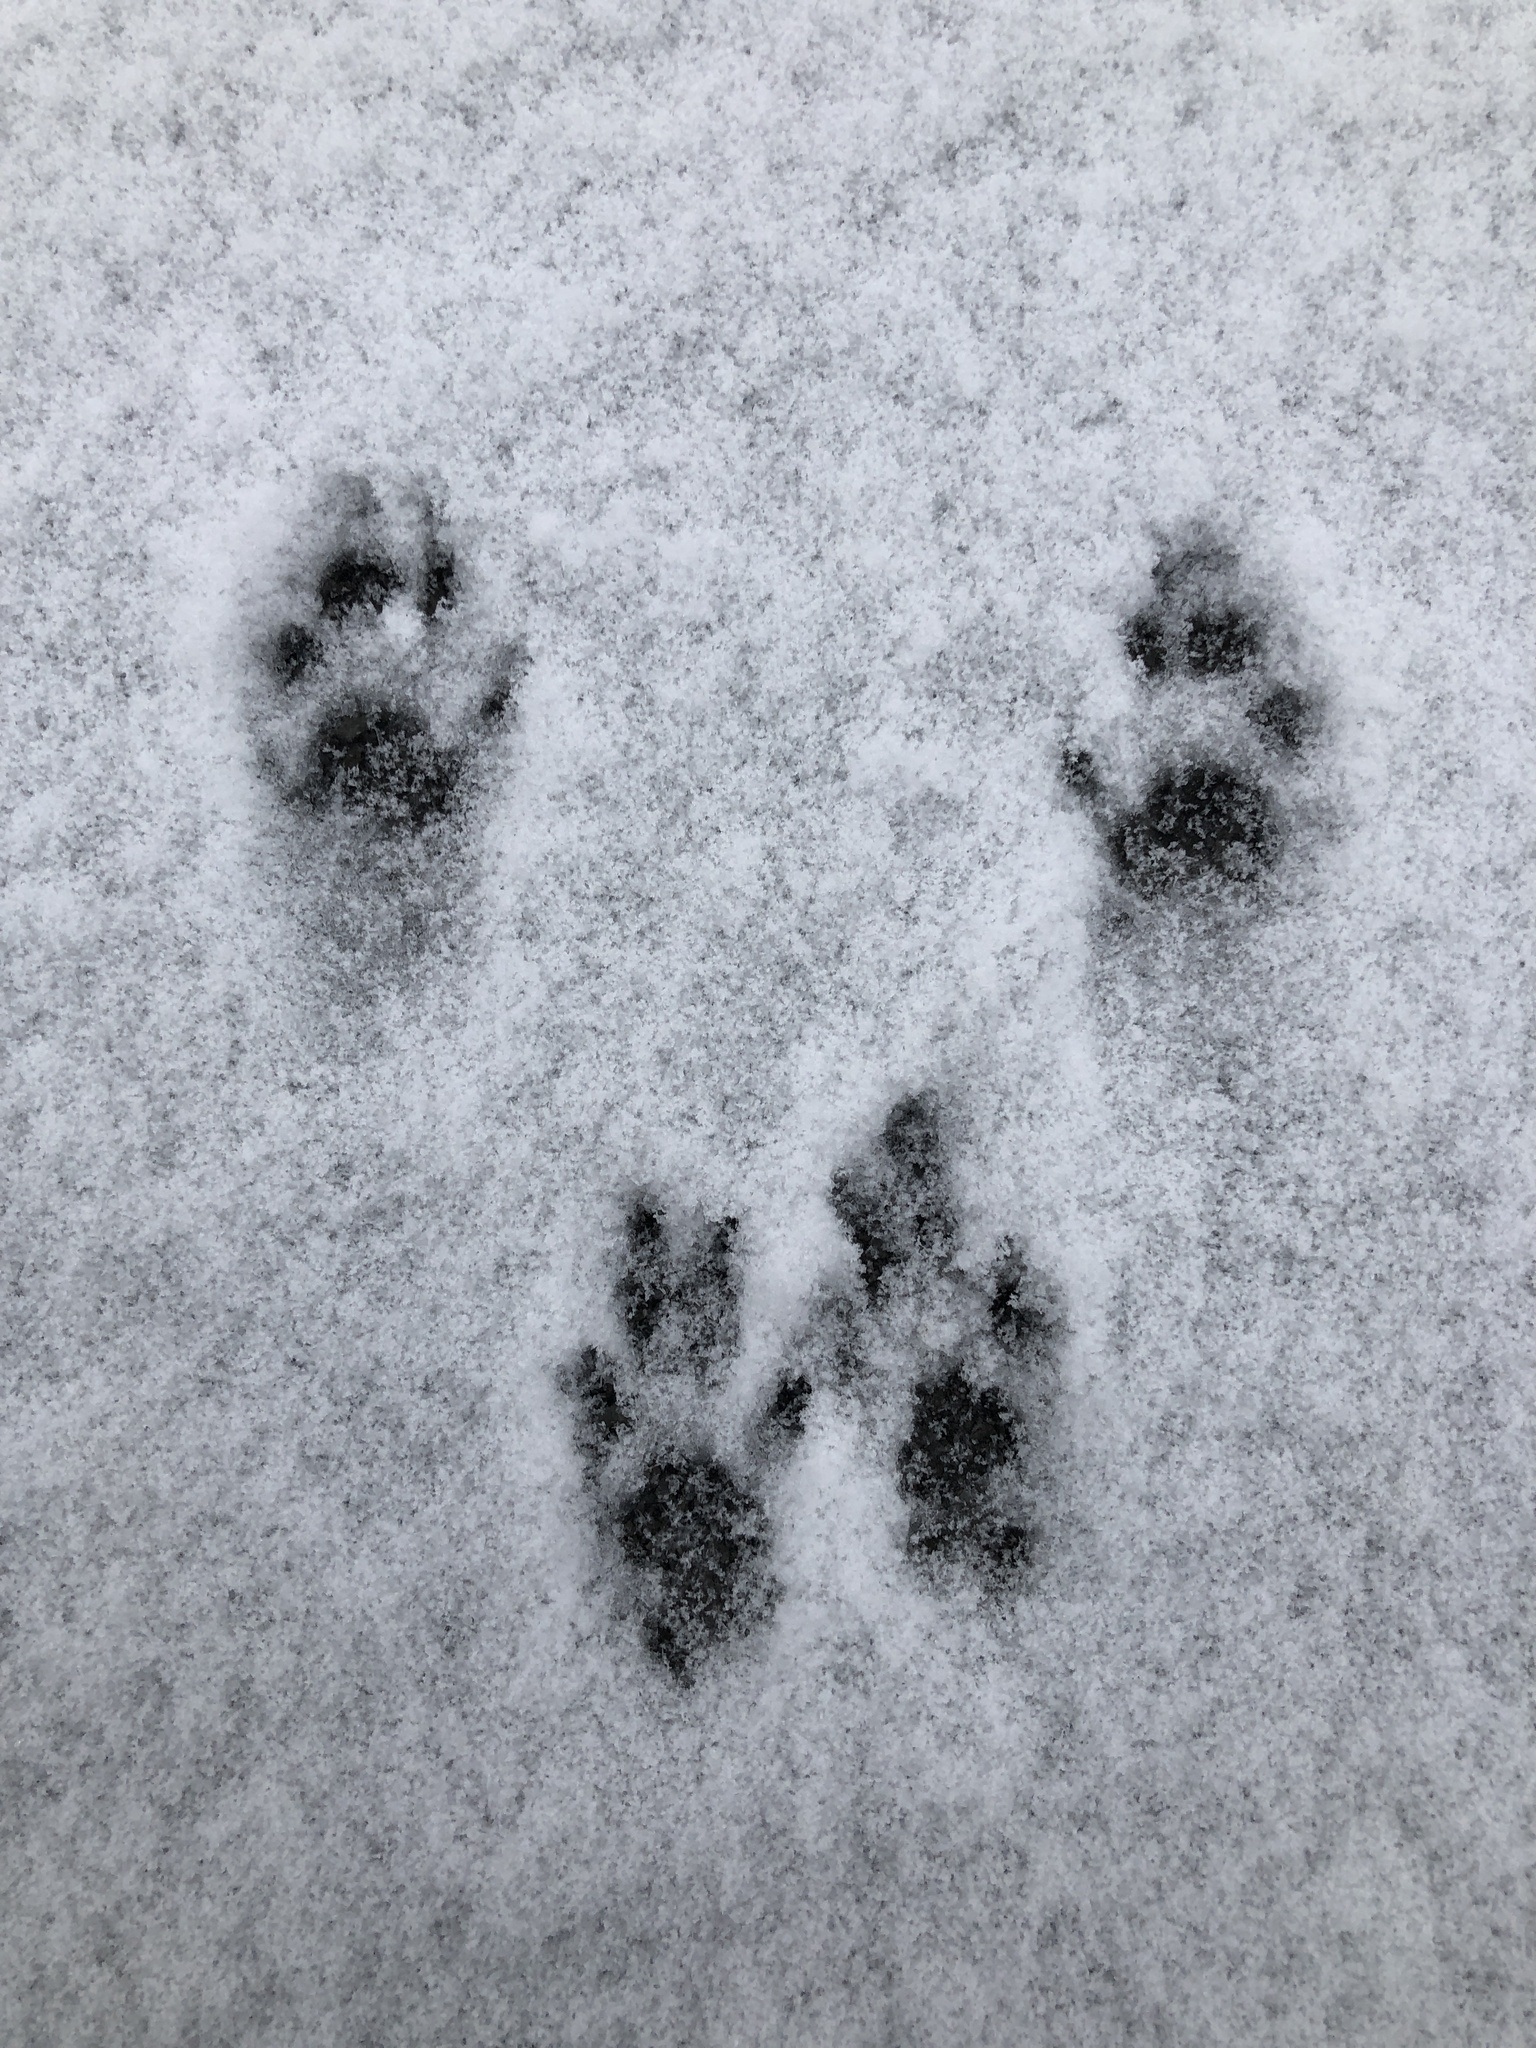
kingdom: Animalia
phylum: Chordata
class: Mammalia
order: Rodentia
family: Sciuridae
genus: Sciurus
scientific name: Sciurus carolinensis
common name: Eastern gray squirrel
